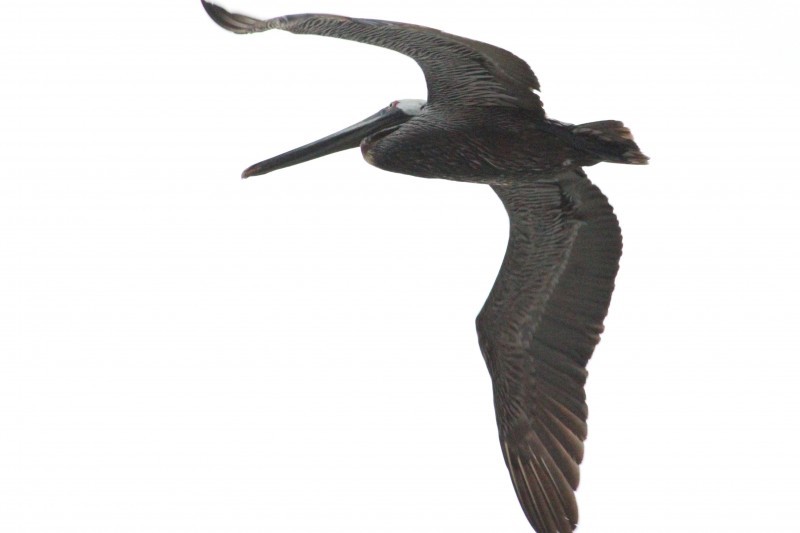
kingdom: Animalia
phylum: Chordata
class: Aves
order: Pelecaniformes
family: Pelecanidae
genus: Pelecanus
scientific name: Pelecanus occidentalis
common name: Brown pelican
